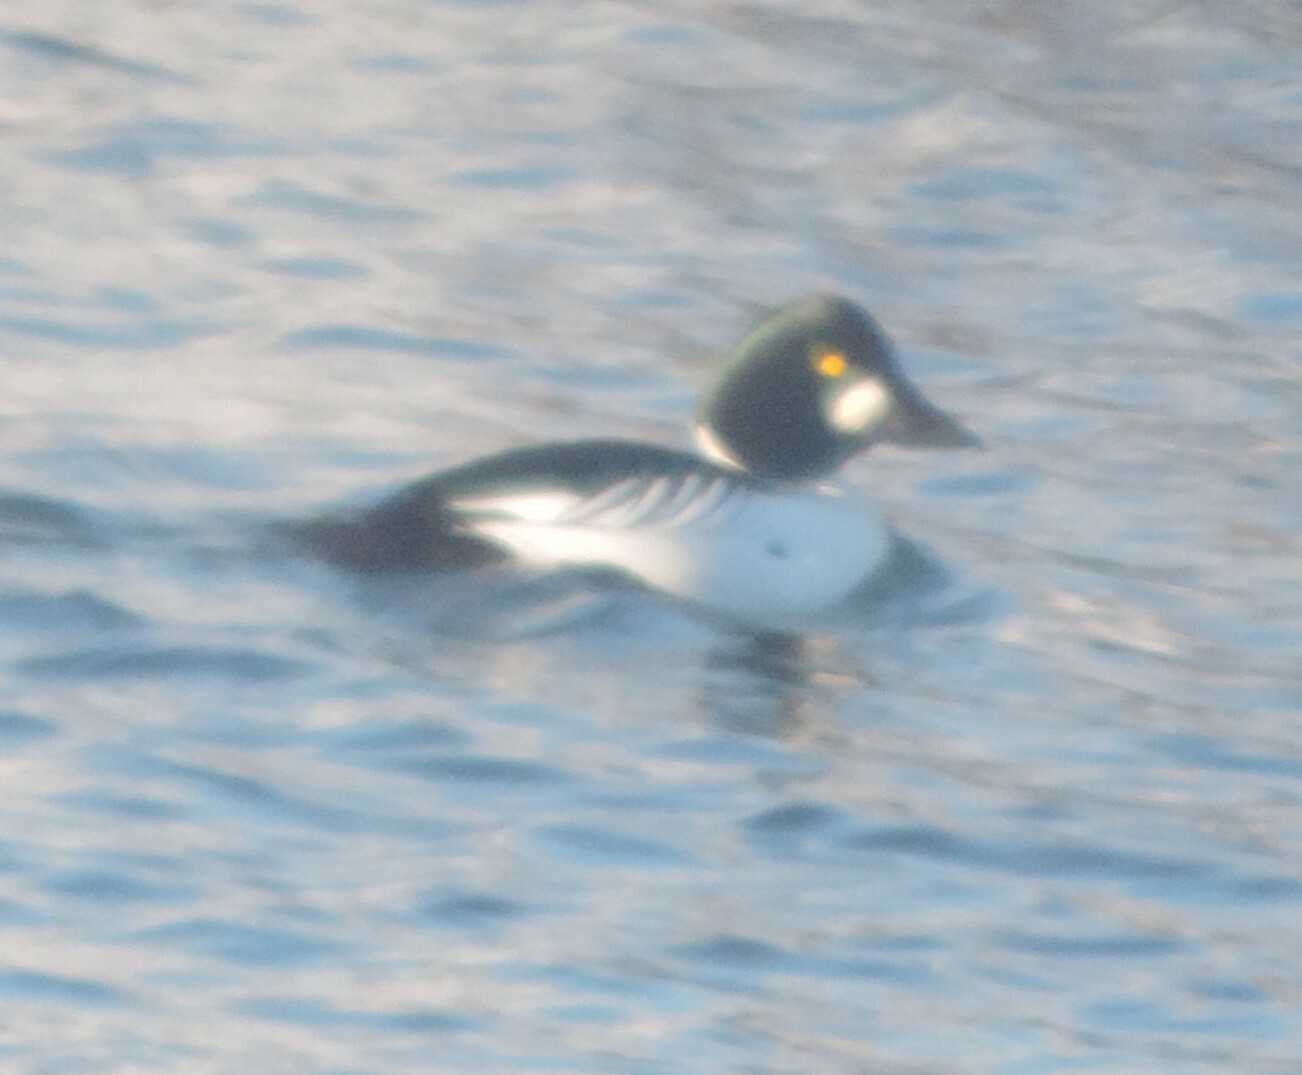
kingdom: Animalia
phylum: Chordata
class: Aves
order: Anseriformes
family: Anatidae
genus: Bucephala
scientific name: Bucephala clangula
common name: Common goldeneye
